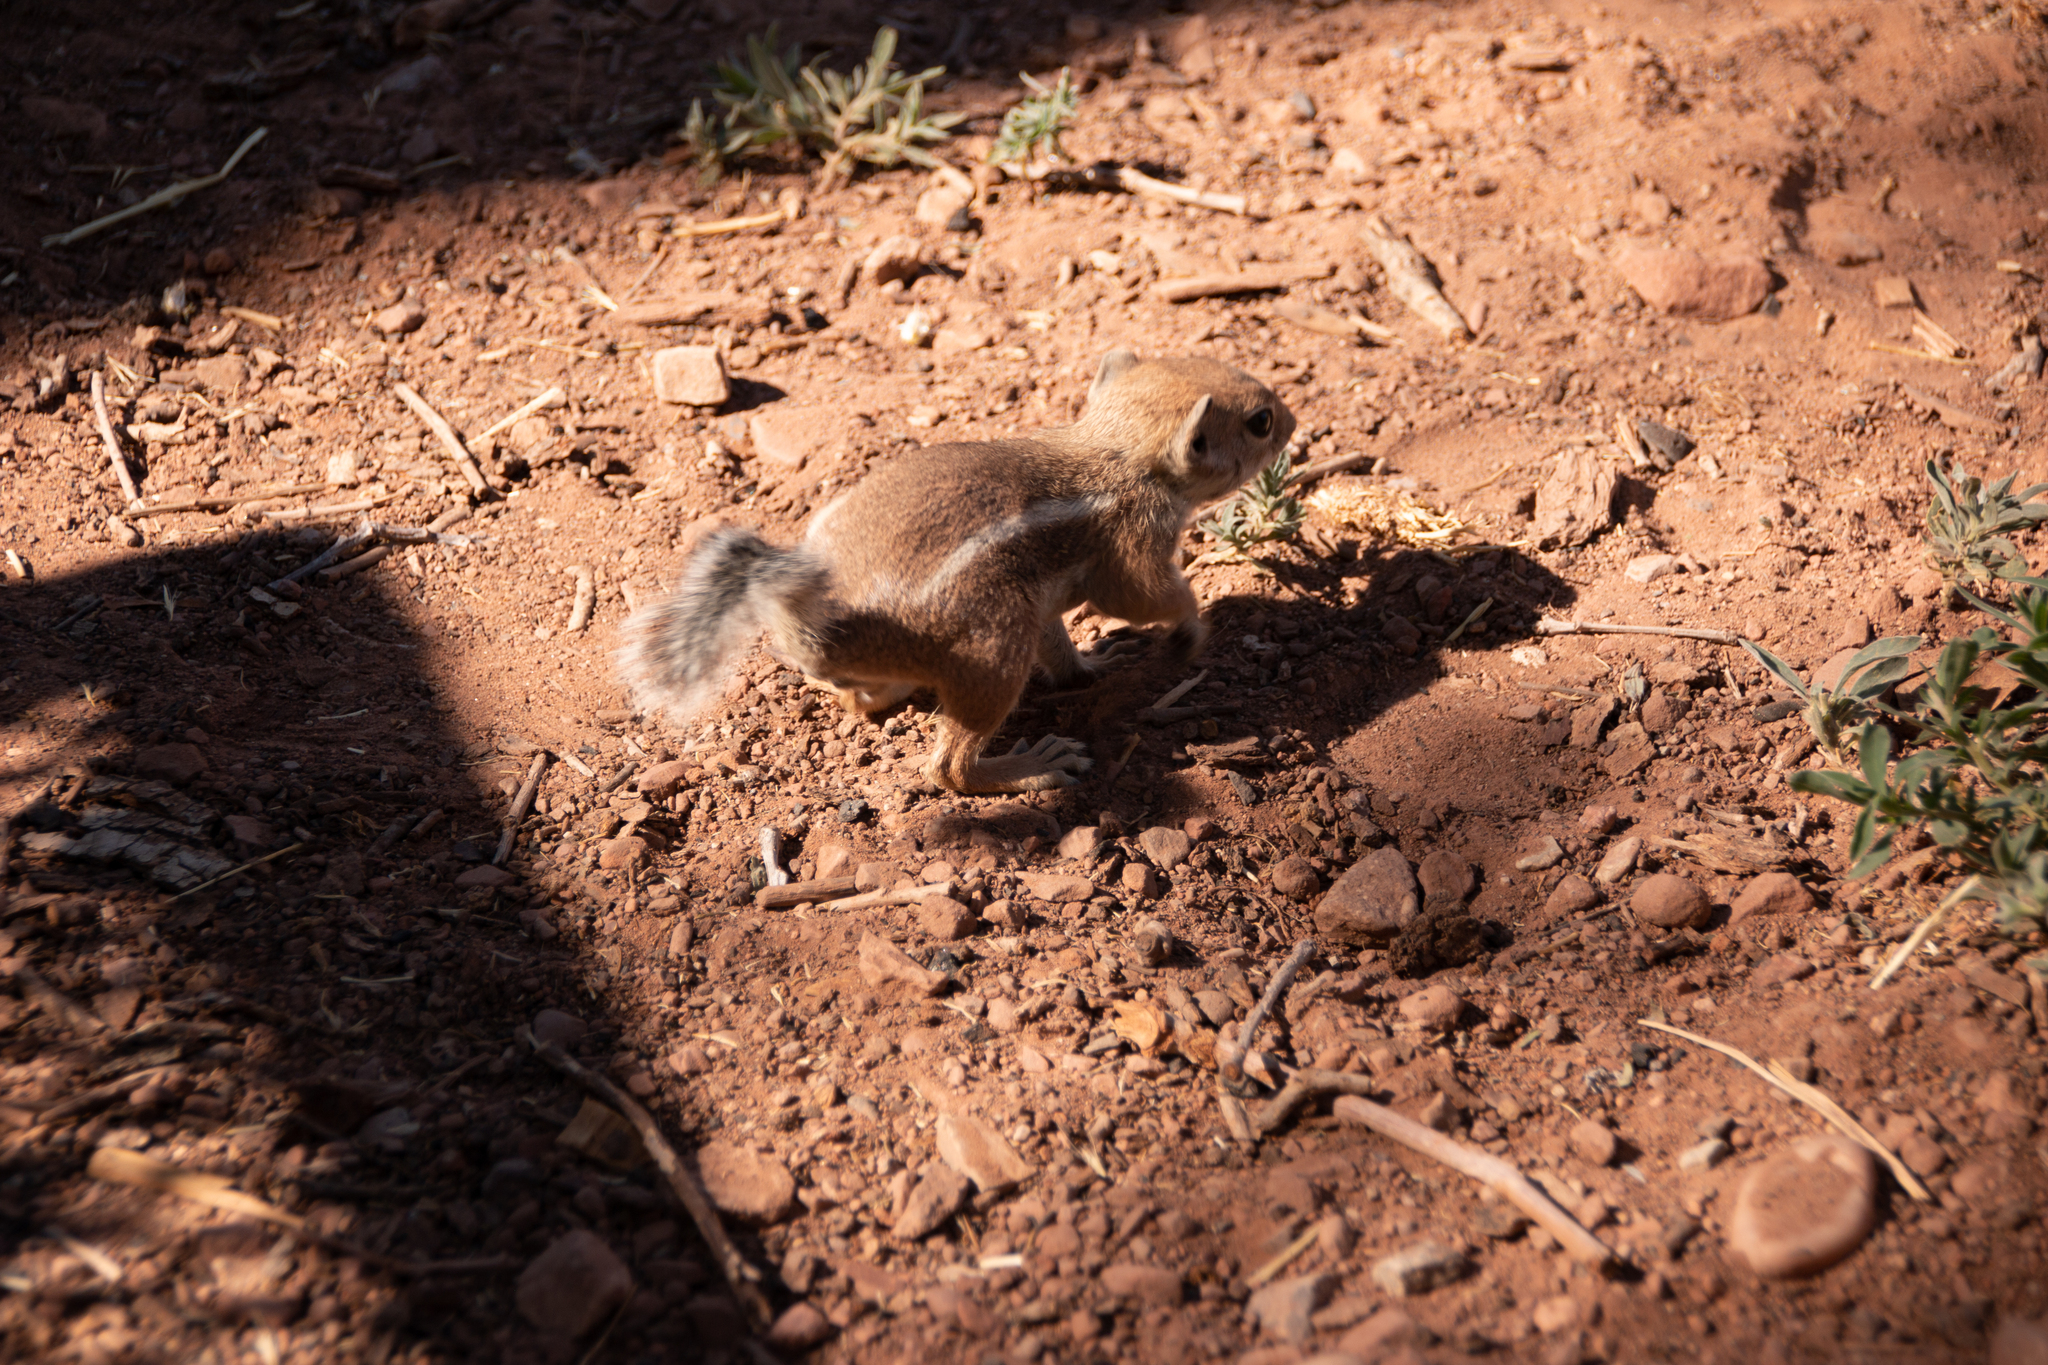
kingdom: Animalia
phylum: Chordata
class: Mammalia
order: Rodentia
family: Sciuridae
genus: Ammospermophilus
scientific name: Ammospermophilus leucurus
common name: White-tailed antelope squirrel
